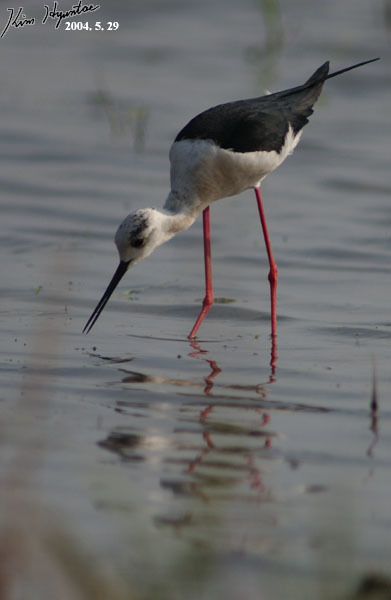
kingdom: Animalia
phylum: Chordata
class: Aves
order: Charadriiformes
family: Recurvirostridae
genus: Himantopus
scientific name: Himantopus himantopus
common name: Black-winged stilt
